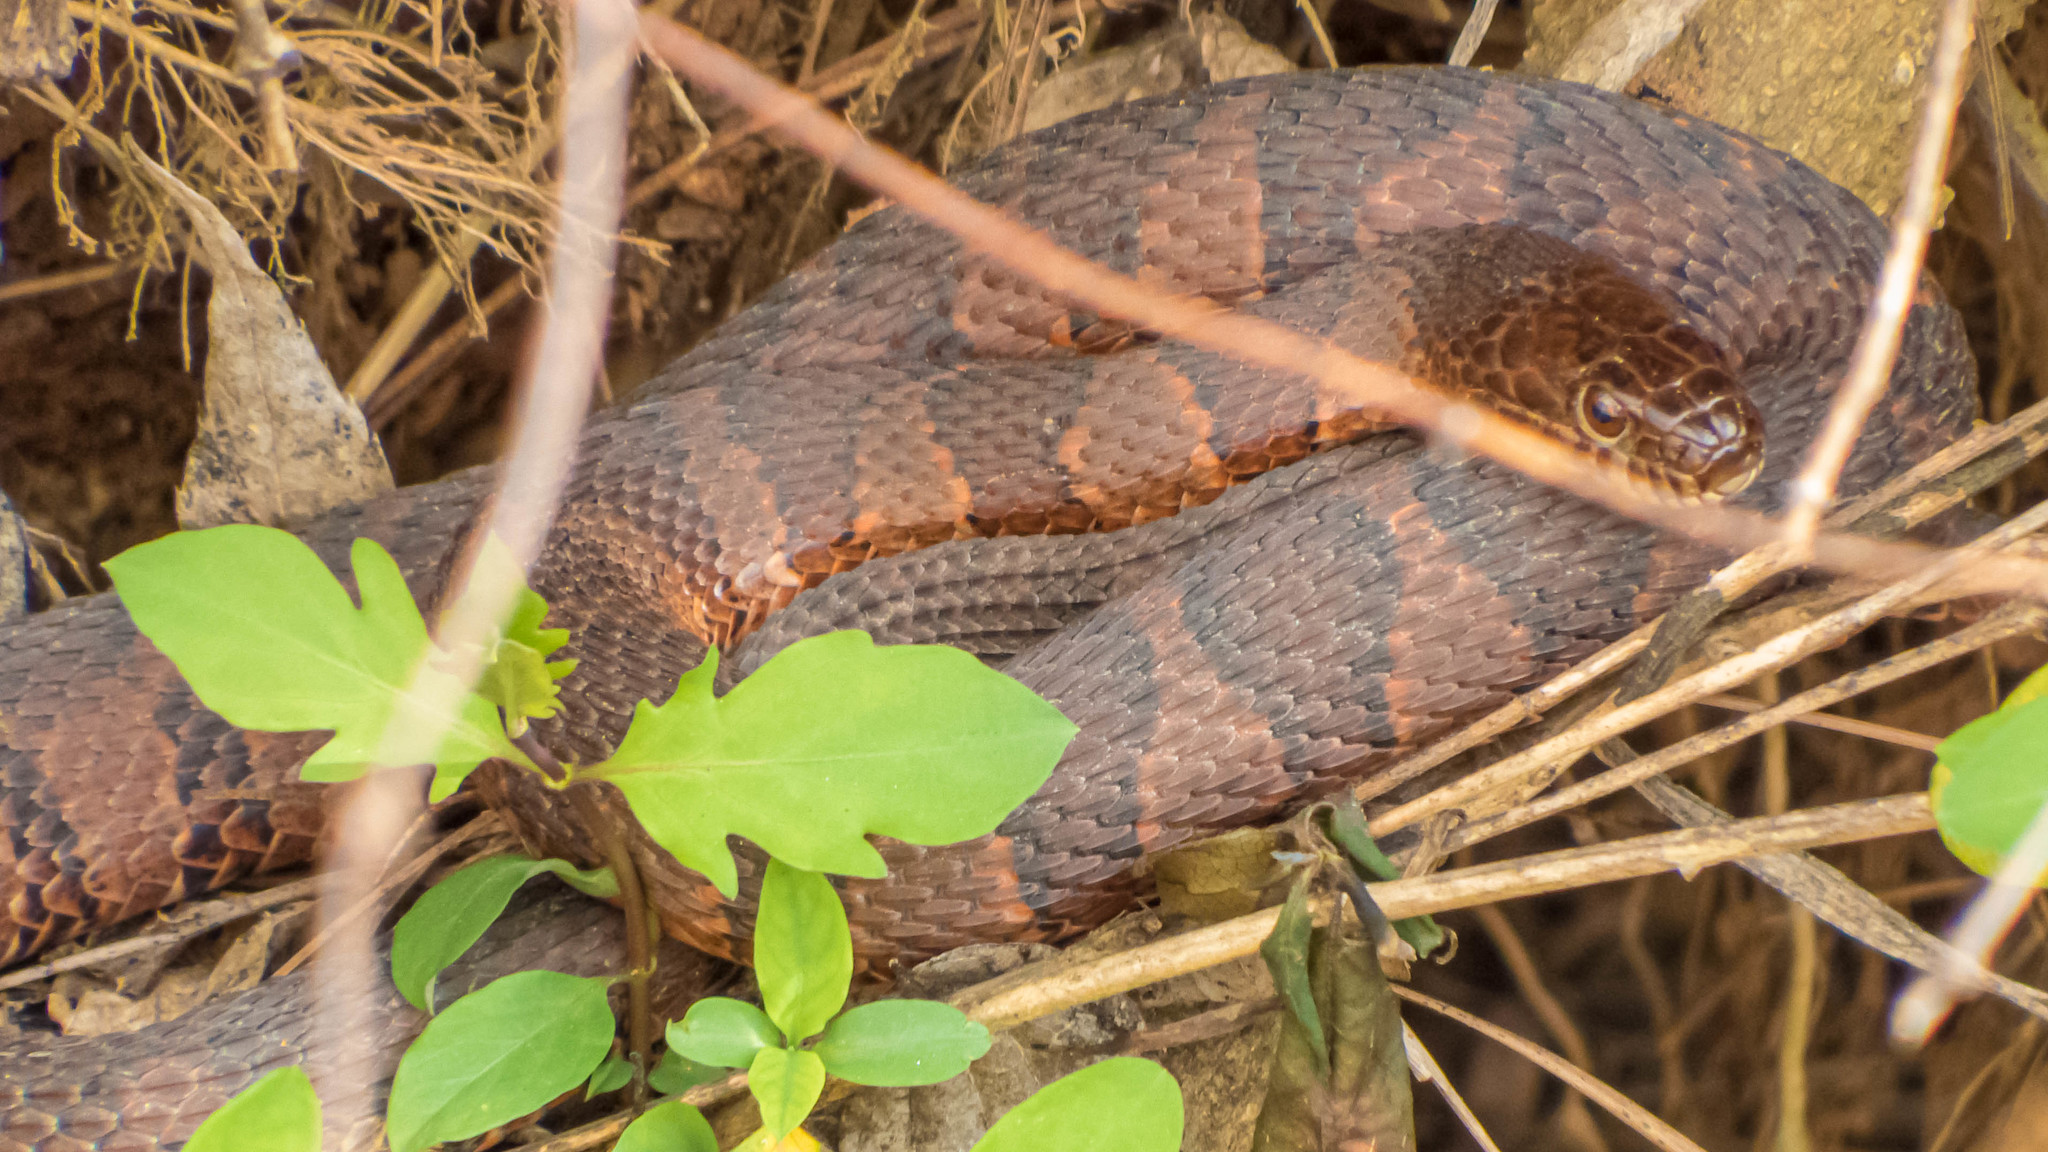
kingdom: Animalia
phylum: Chordata
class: Squamata
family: Colubridae
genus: Nerodia
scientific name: Nerodia sipedon
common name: Northern water snake
